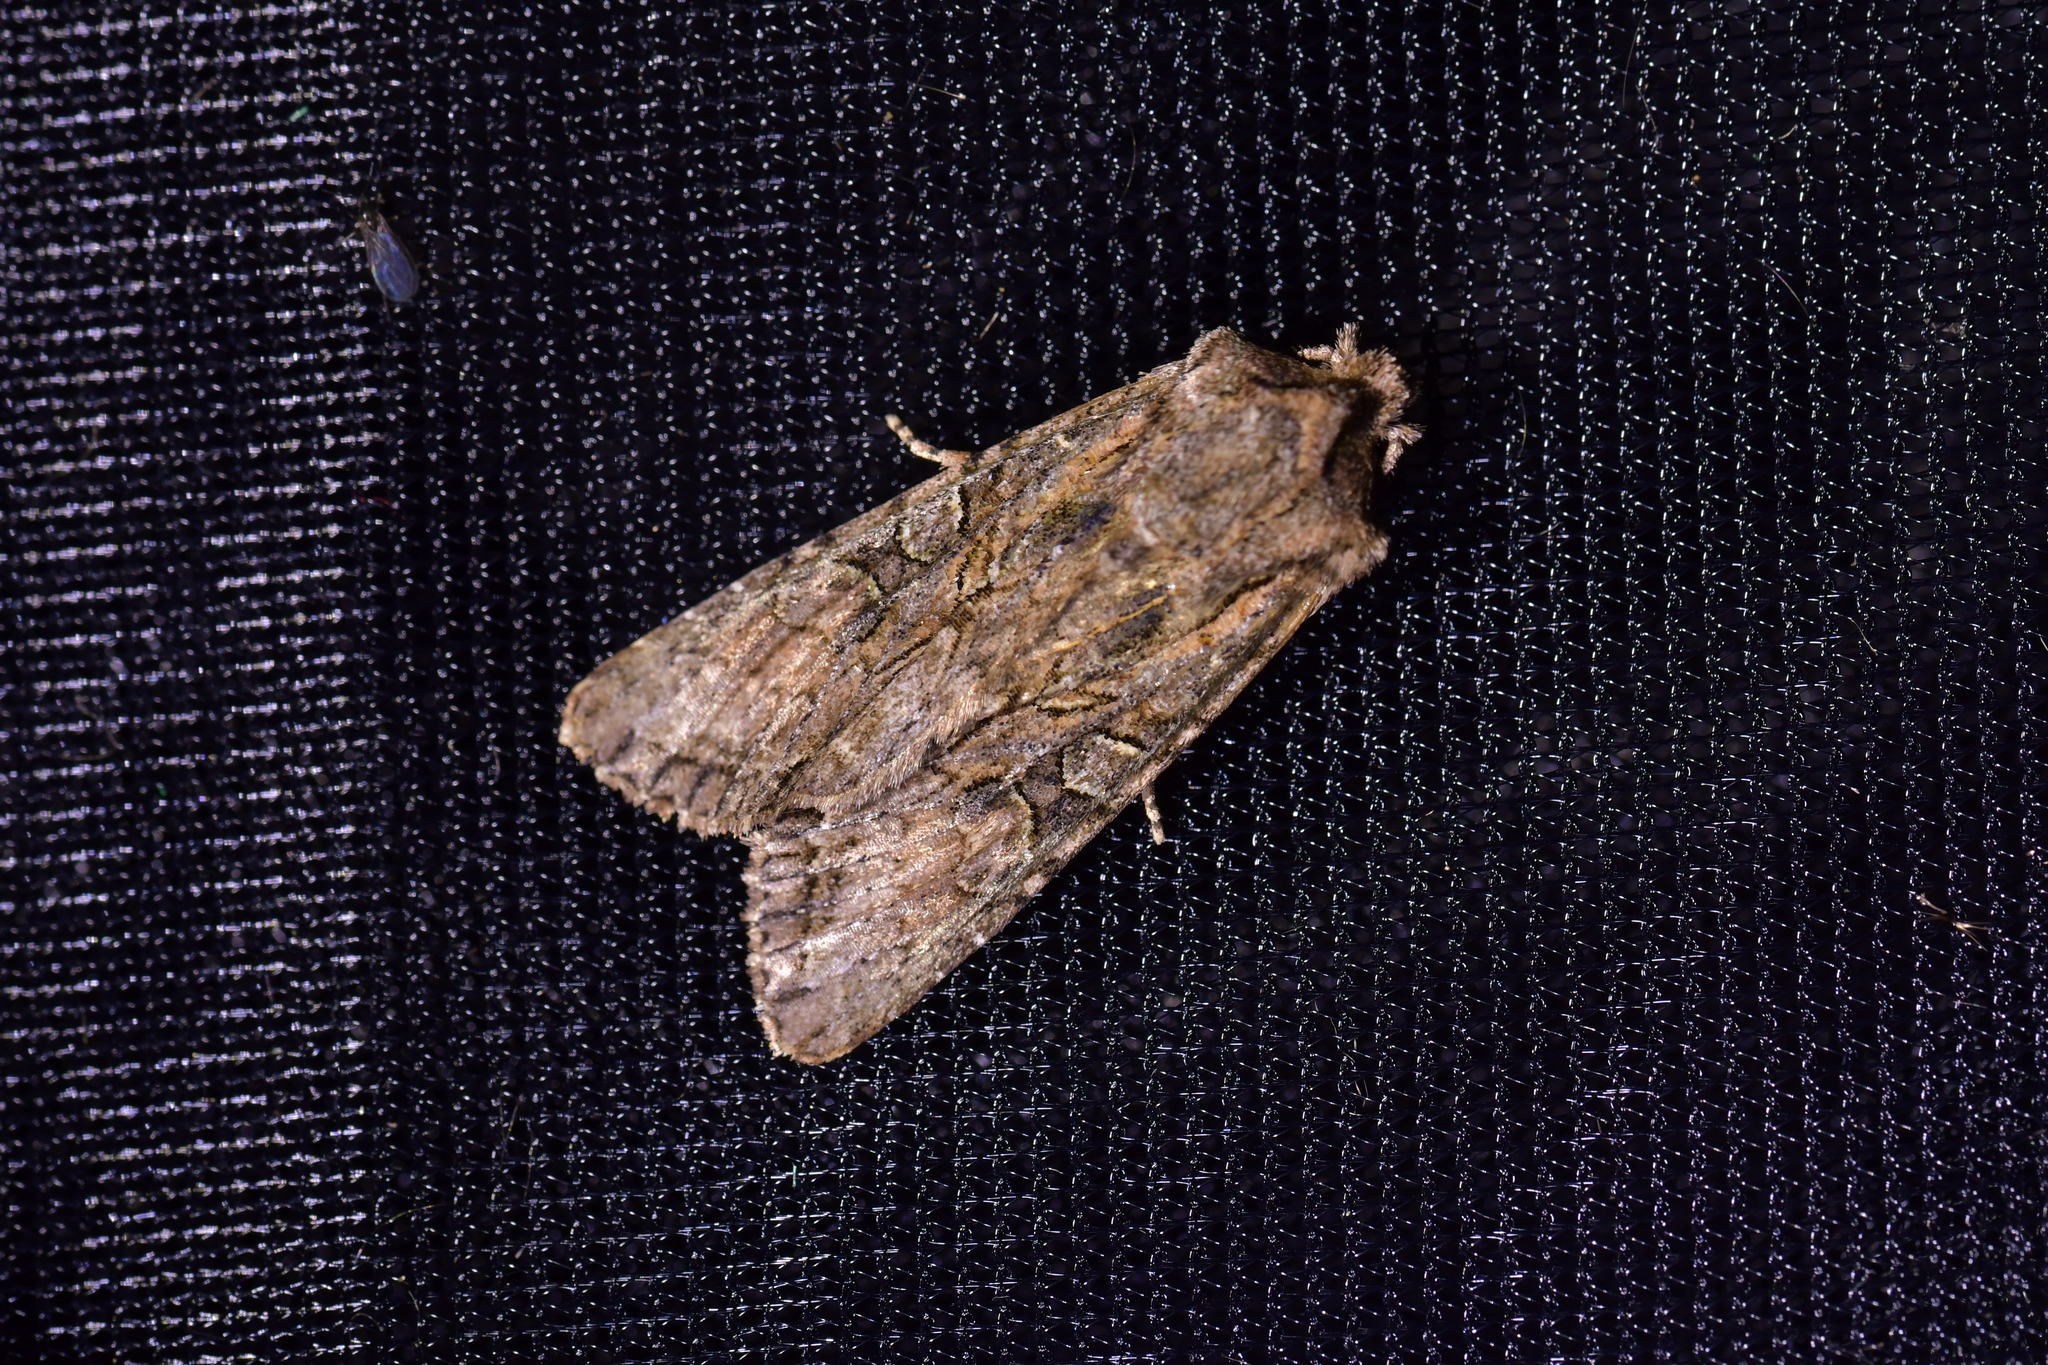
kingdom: Animalia
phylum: Arthropoda
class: Insecta
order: Lepidoptera
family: Noctuidae
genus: Ichneutica
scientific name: Ichneutica mutans
